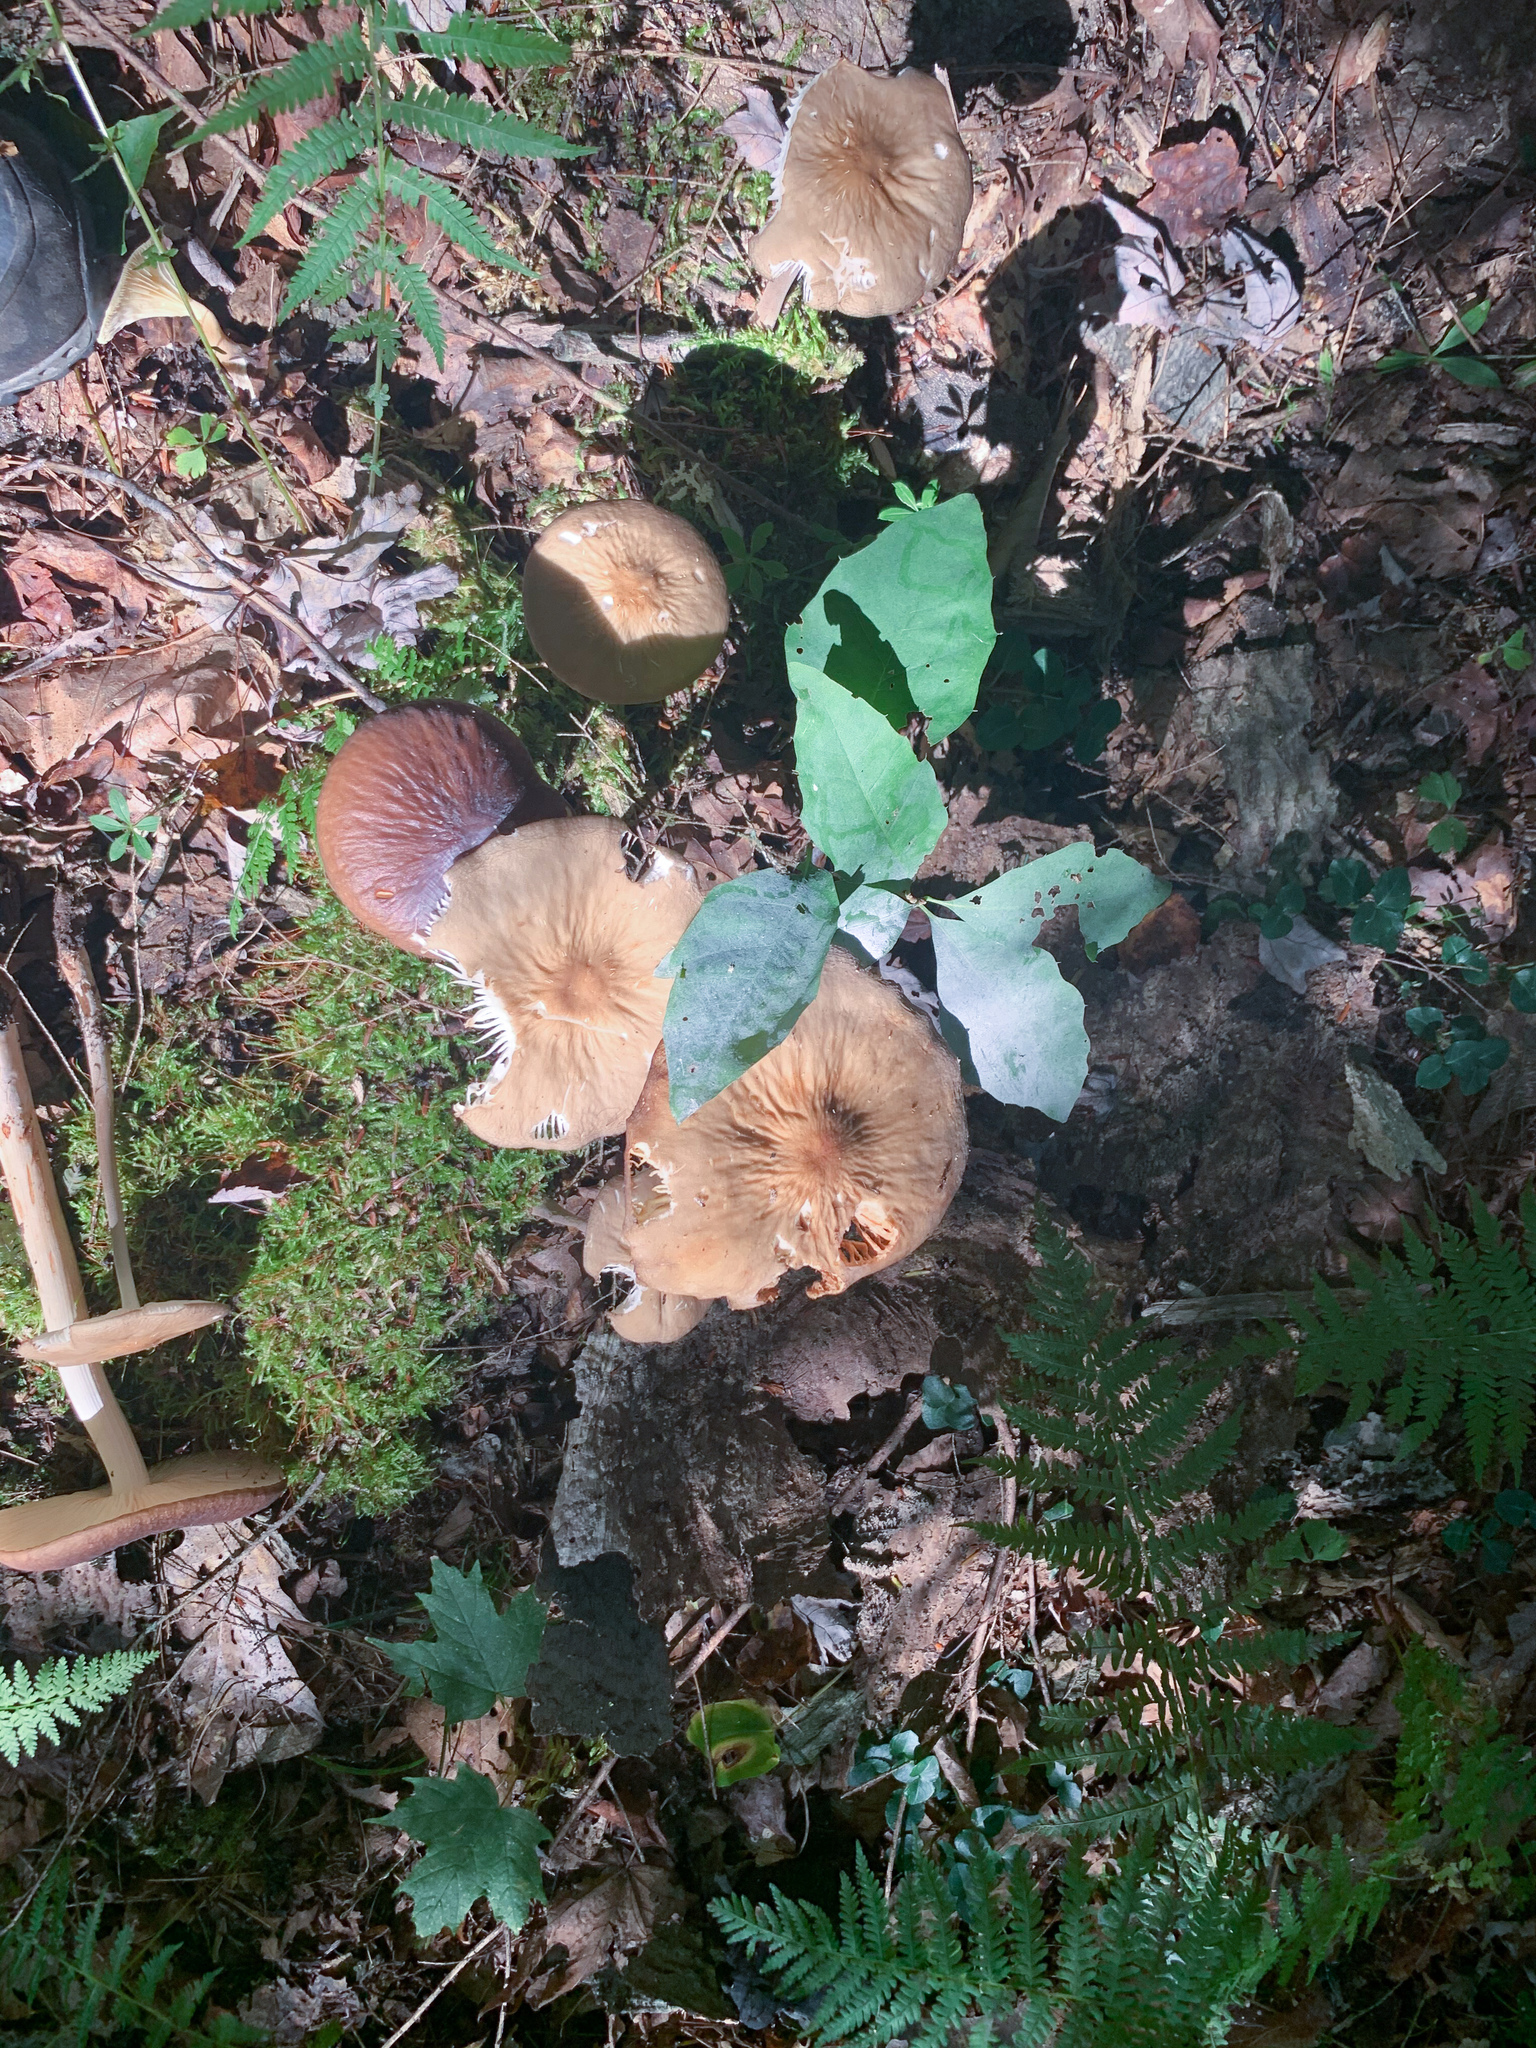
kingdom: Fungi
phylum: Basidiomycota
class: Agaricomycetes
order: Agaricales
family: Physalacriaceae
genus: Hymenopellis
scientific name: Hymenopellis furfuracea
